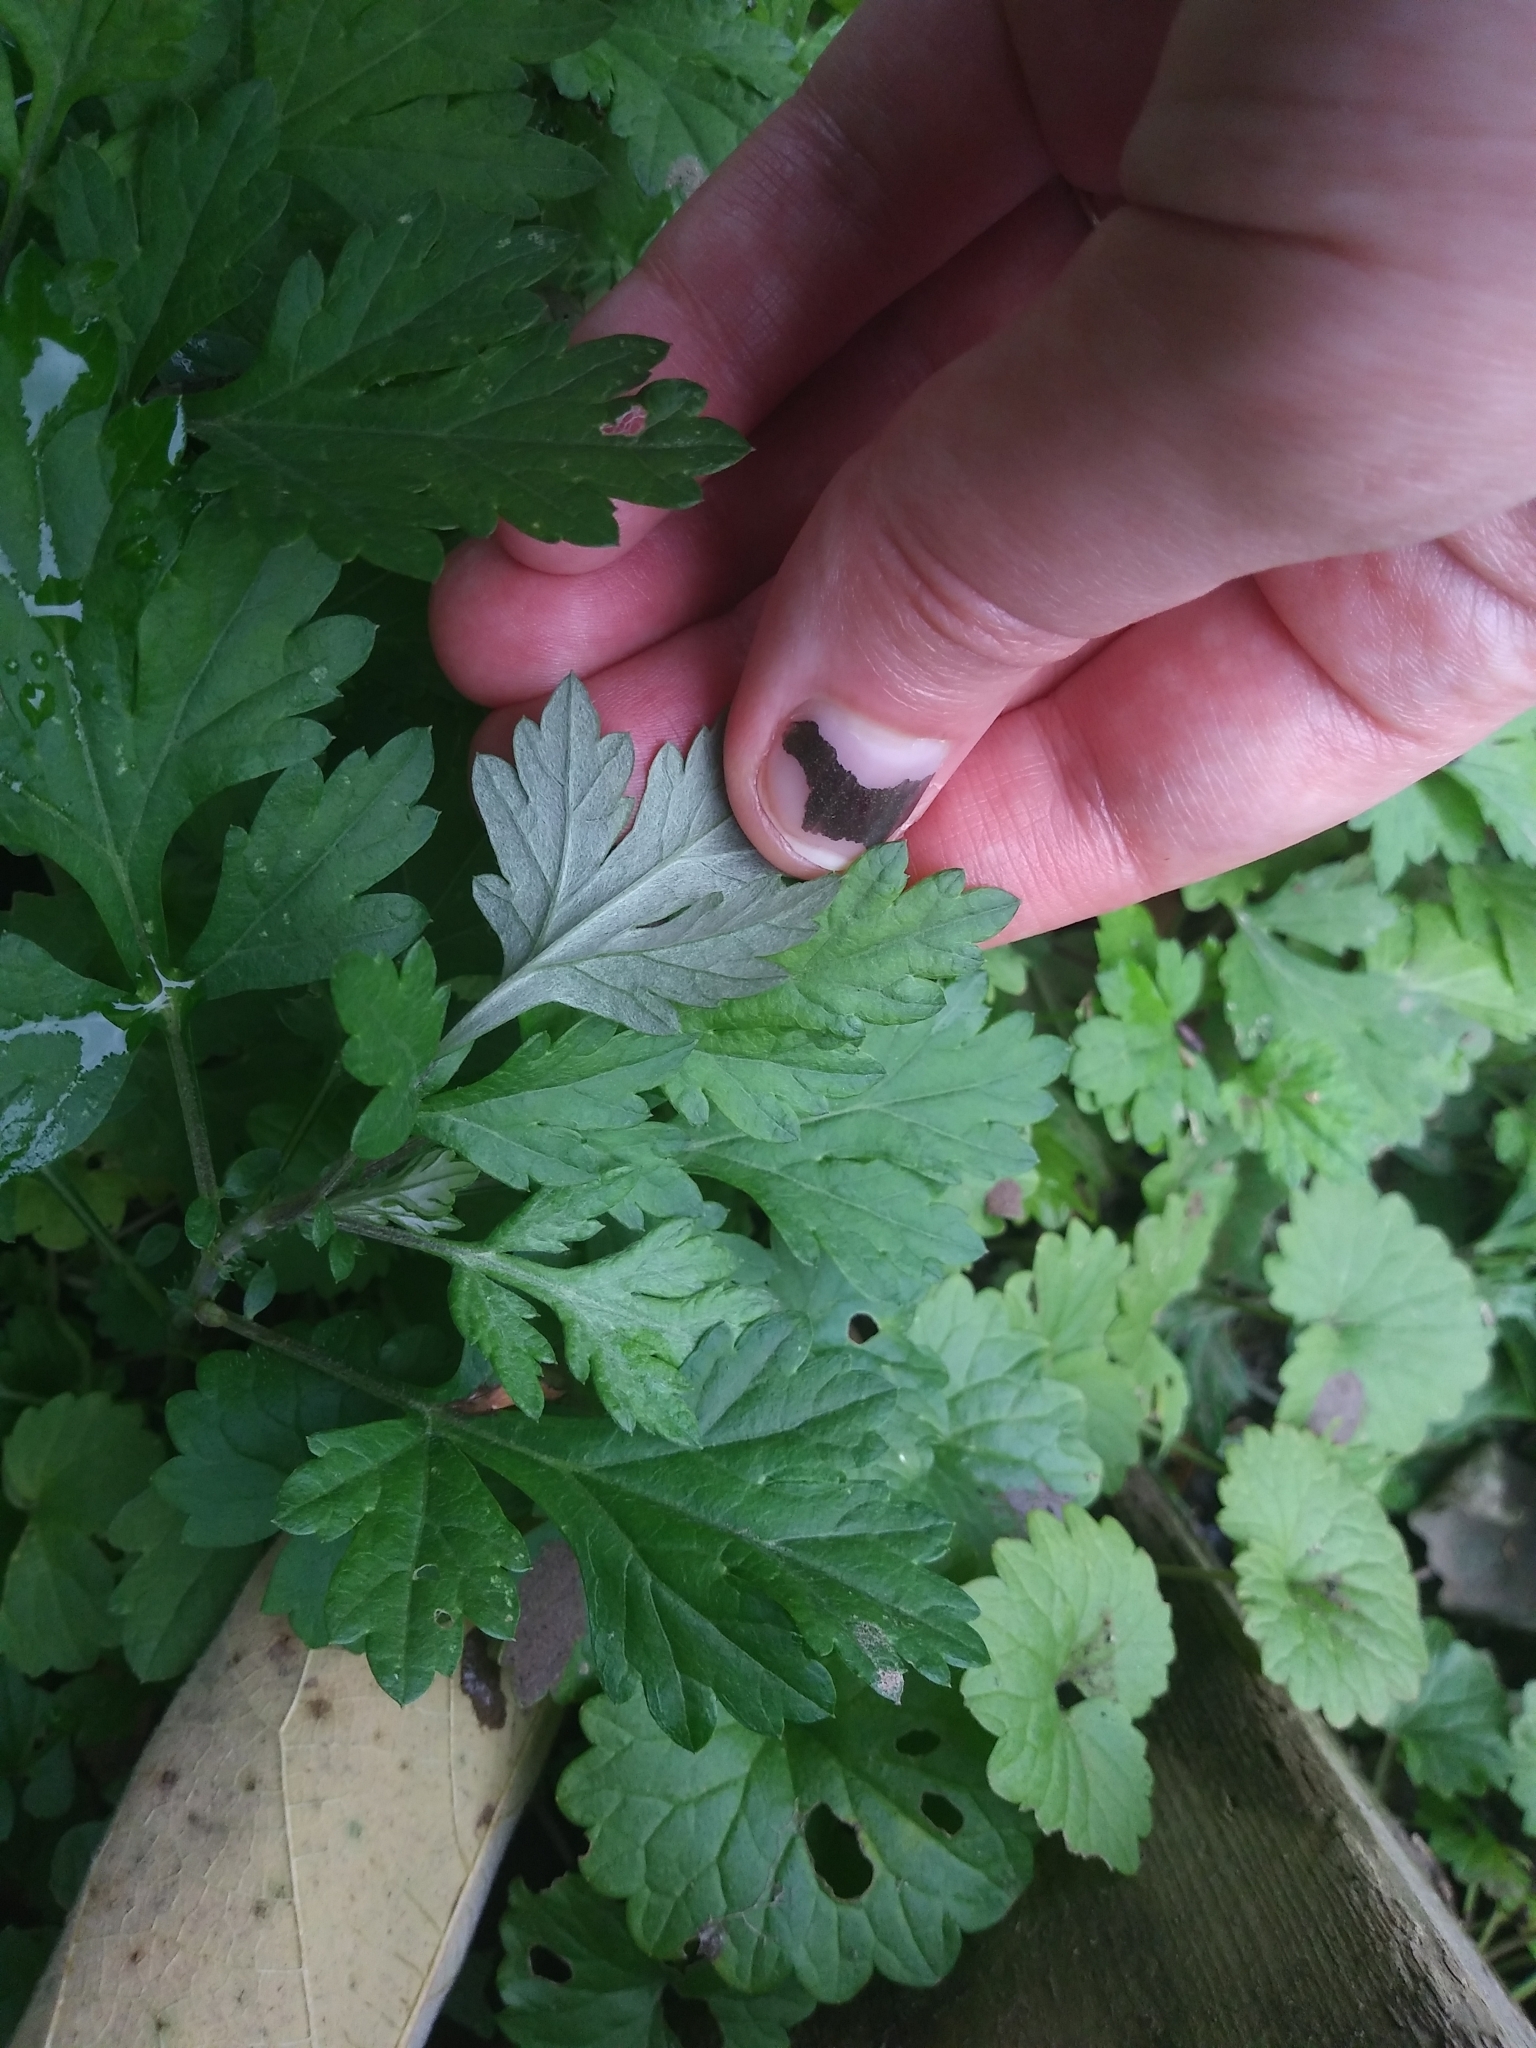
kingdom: Plantae
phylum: Tracheophyta
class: Magnoliopsida
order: Asterales
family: Asteraceae
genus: Artemisia
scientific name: Artemisia vulgaris
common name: Mugwort
